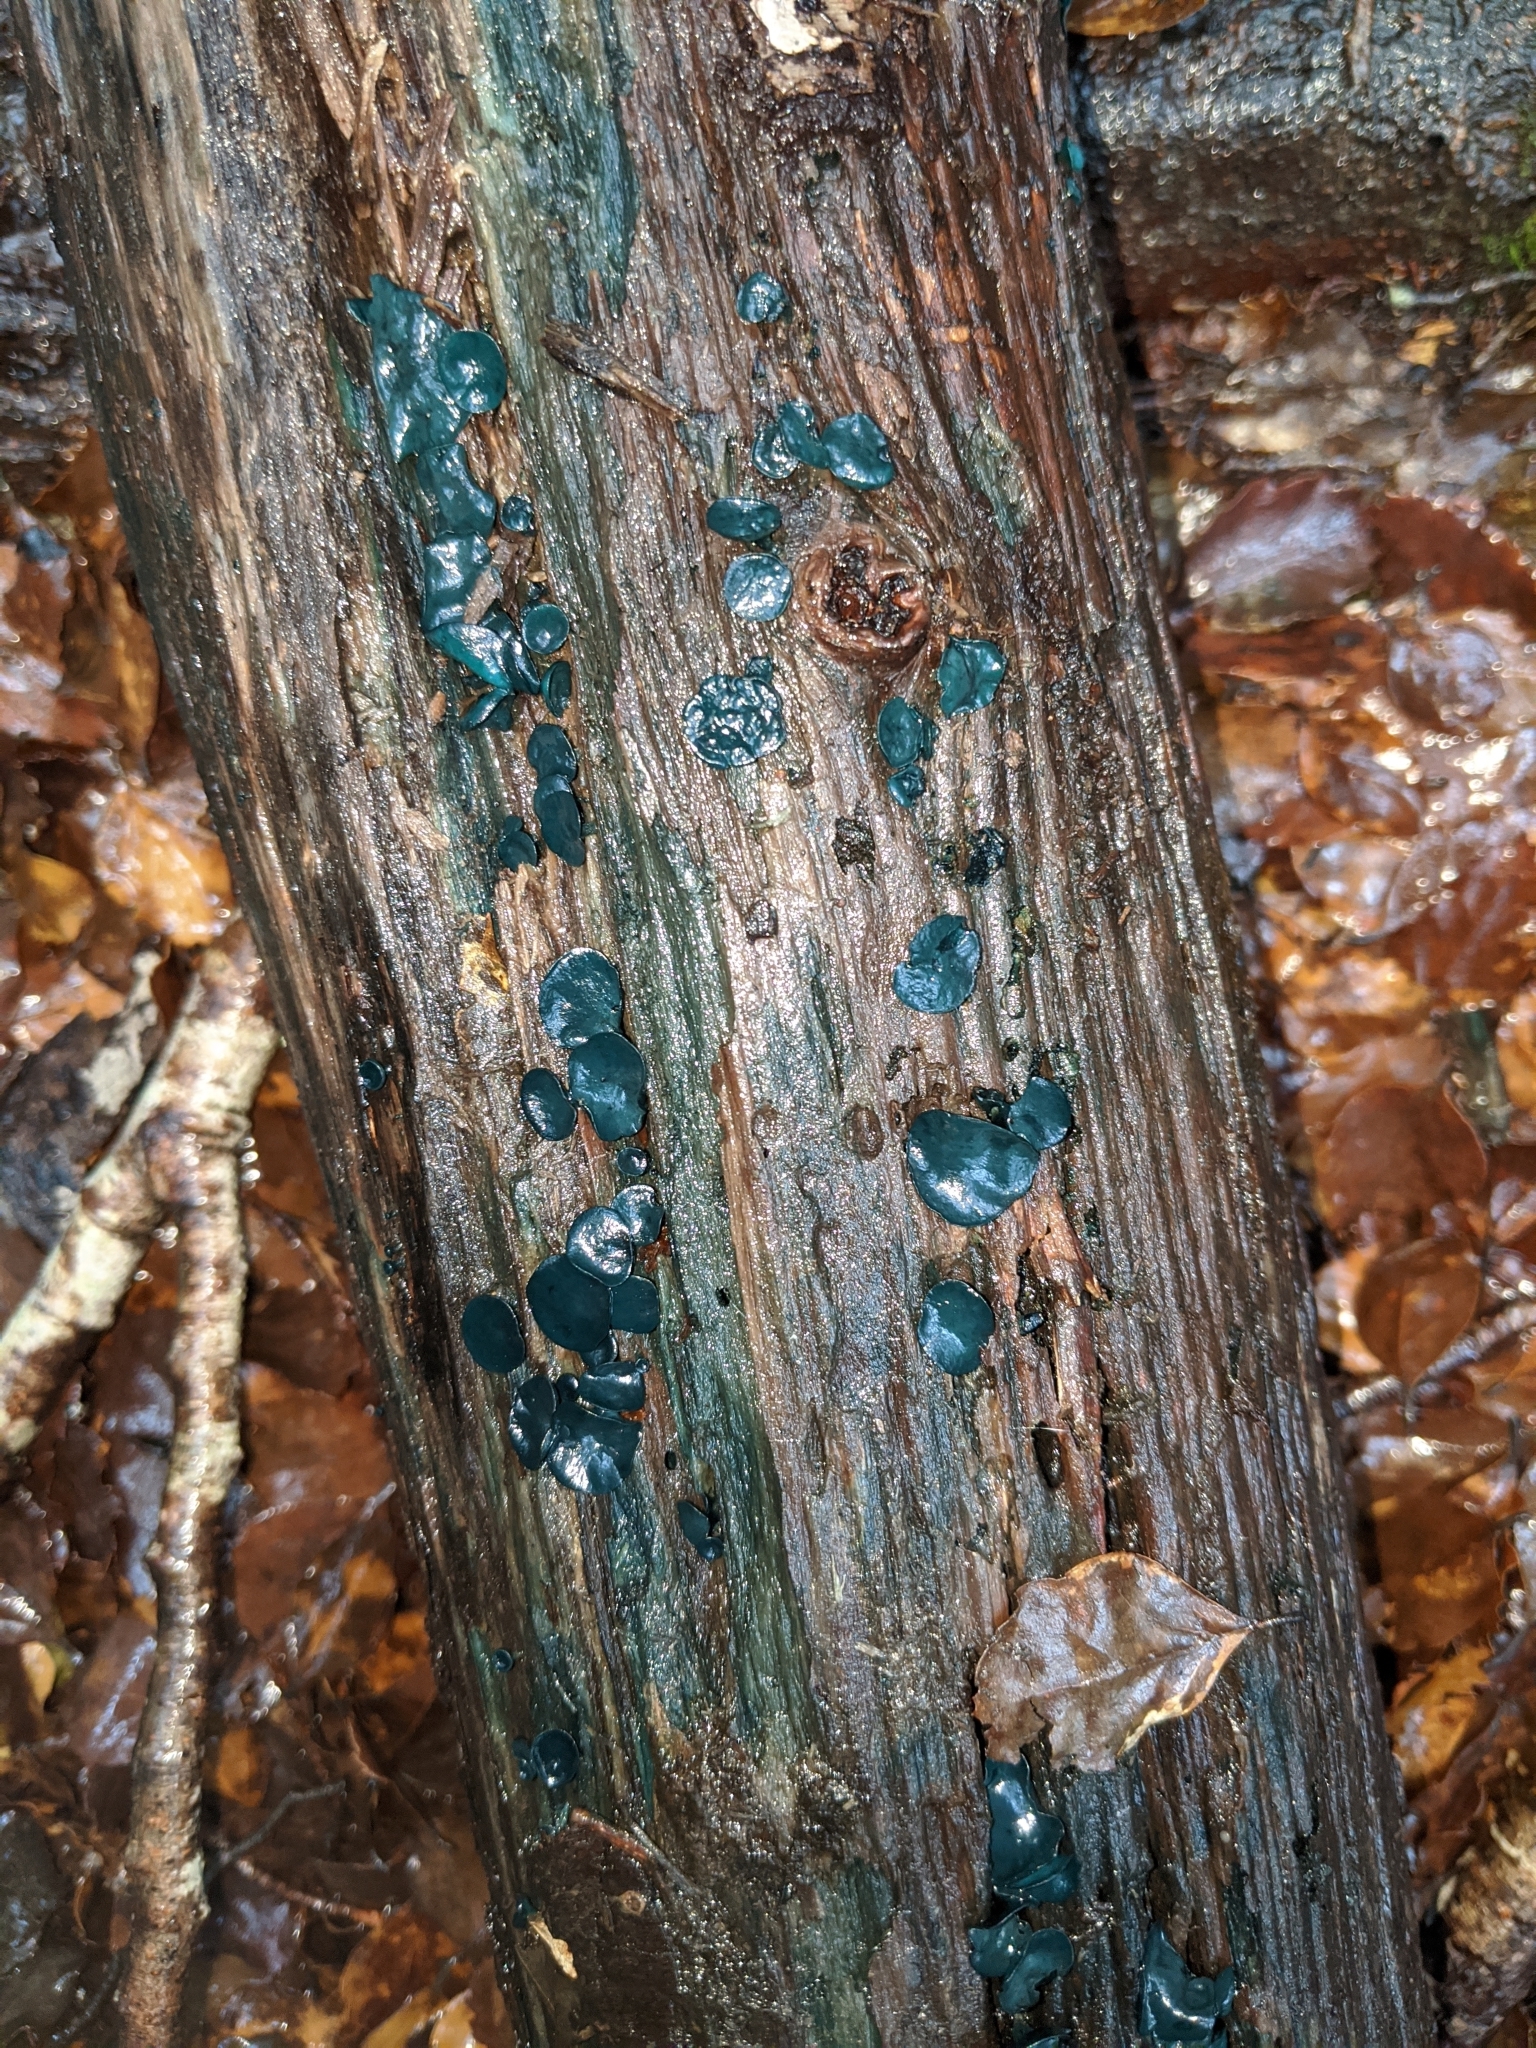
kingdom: Fungi
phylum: Ascomycota
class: Leotiomycetes
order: Helotiales
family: Chlorociboriaceae
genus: Chlorociboria
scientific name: Chlorociboria
